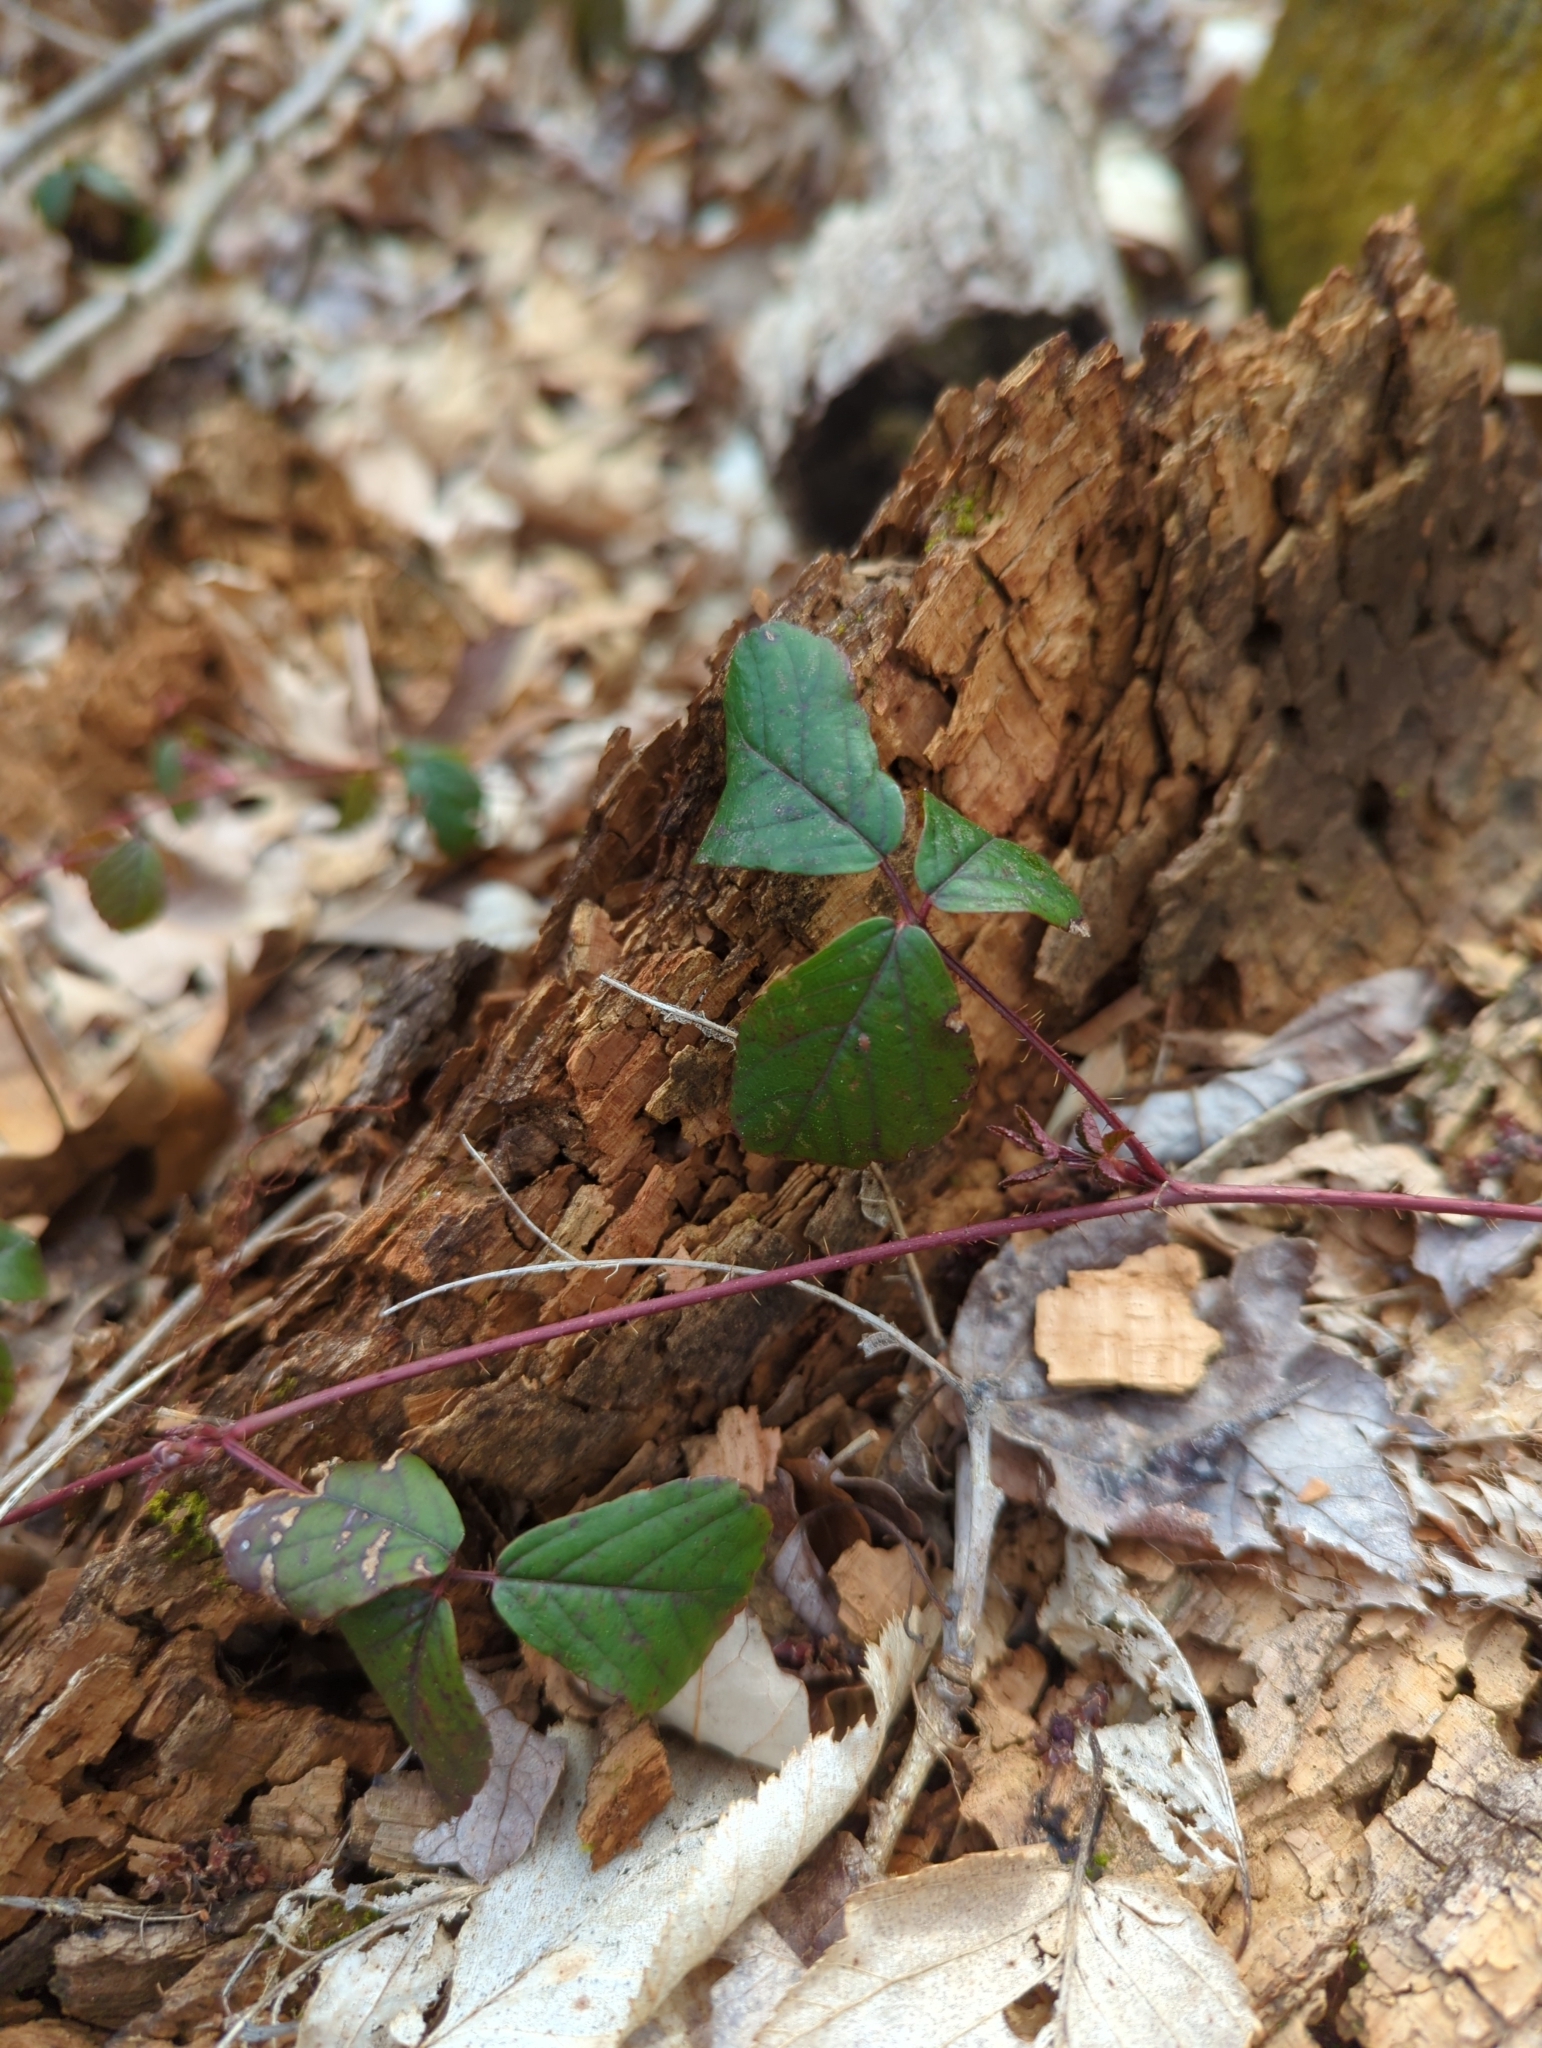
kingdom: Plantae
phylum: Tracheophyta
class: Magnoliopsida
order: Rosales
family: Rosaceae
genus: Rubus
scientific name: Rubus hispidus
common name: Running blackberry
